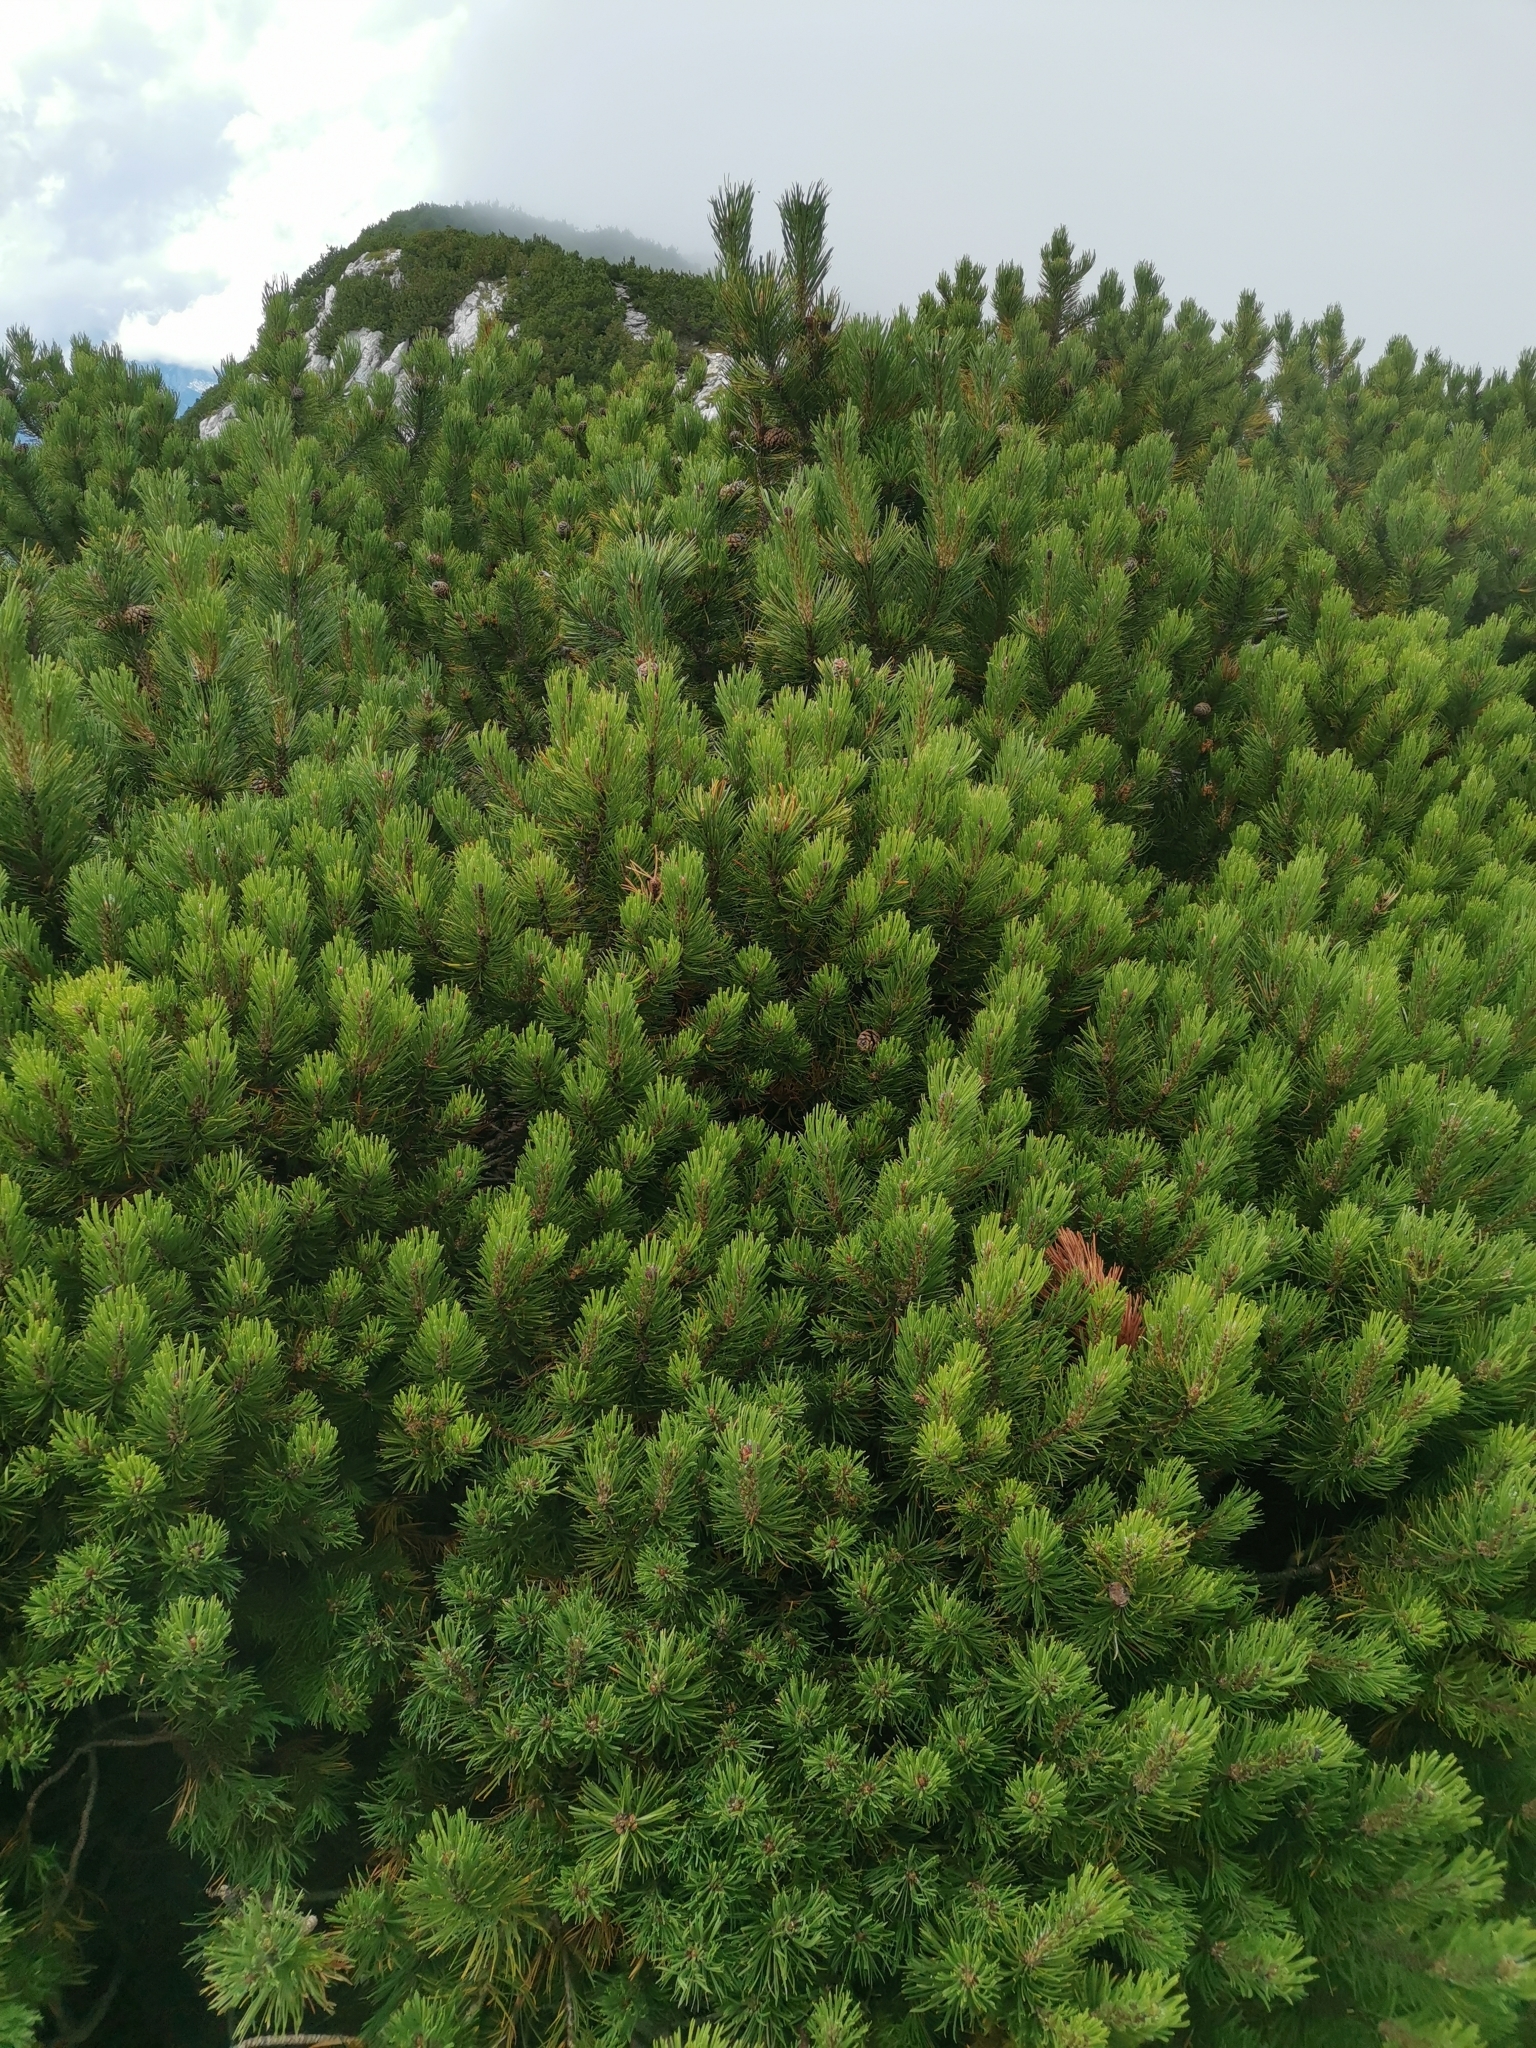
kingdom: Plantae
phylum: Tracheophyta
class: Pinopsida
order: Pinales
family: Pinaceae
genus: Pinus
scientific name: Pinus mugo
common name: Mugo pine
